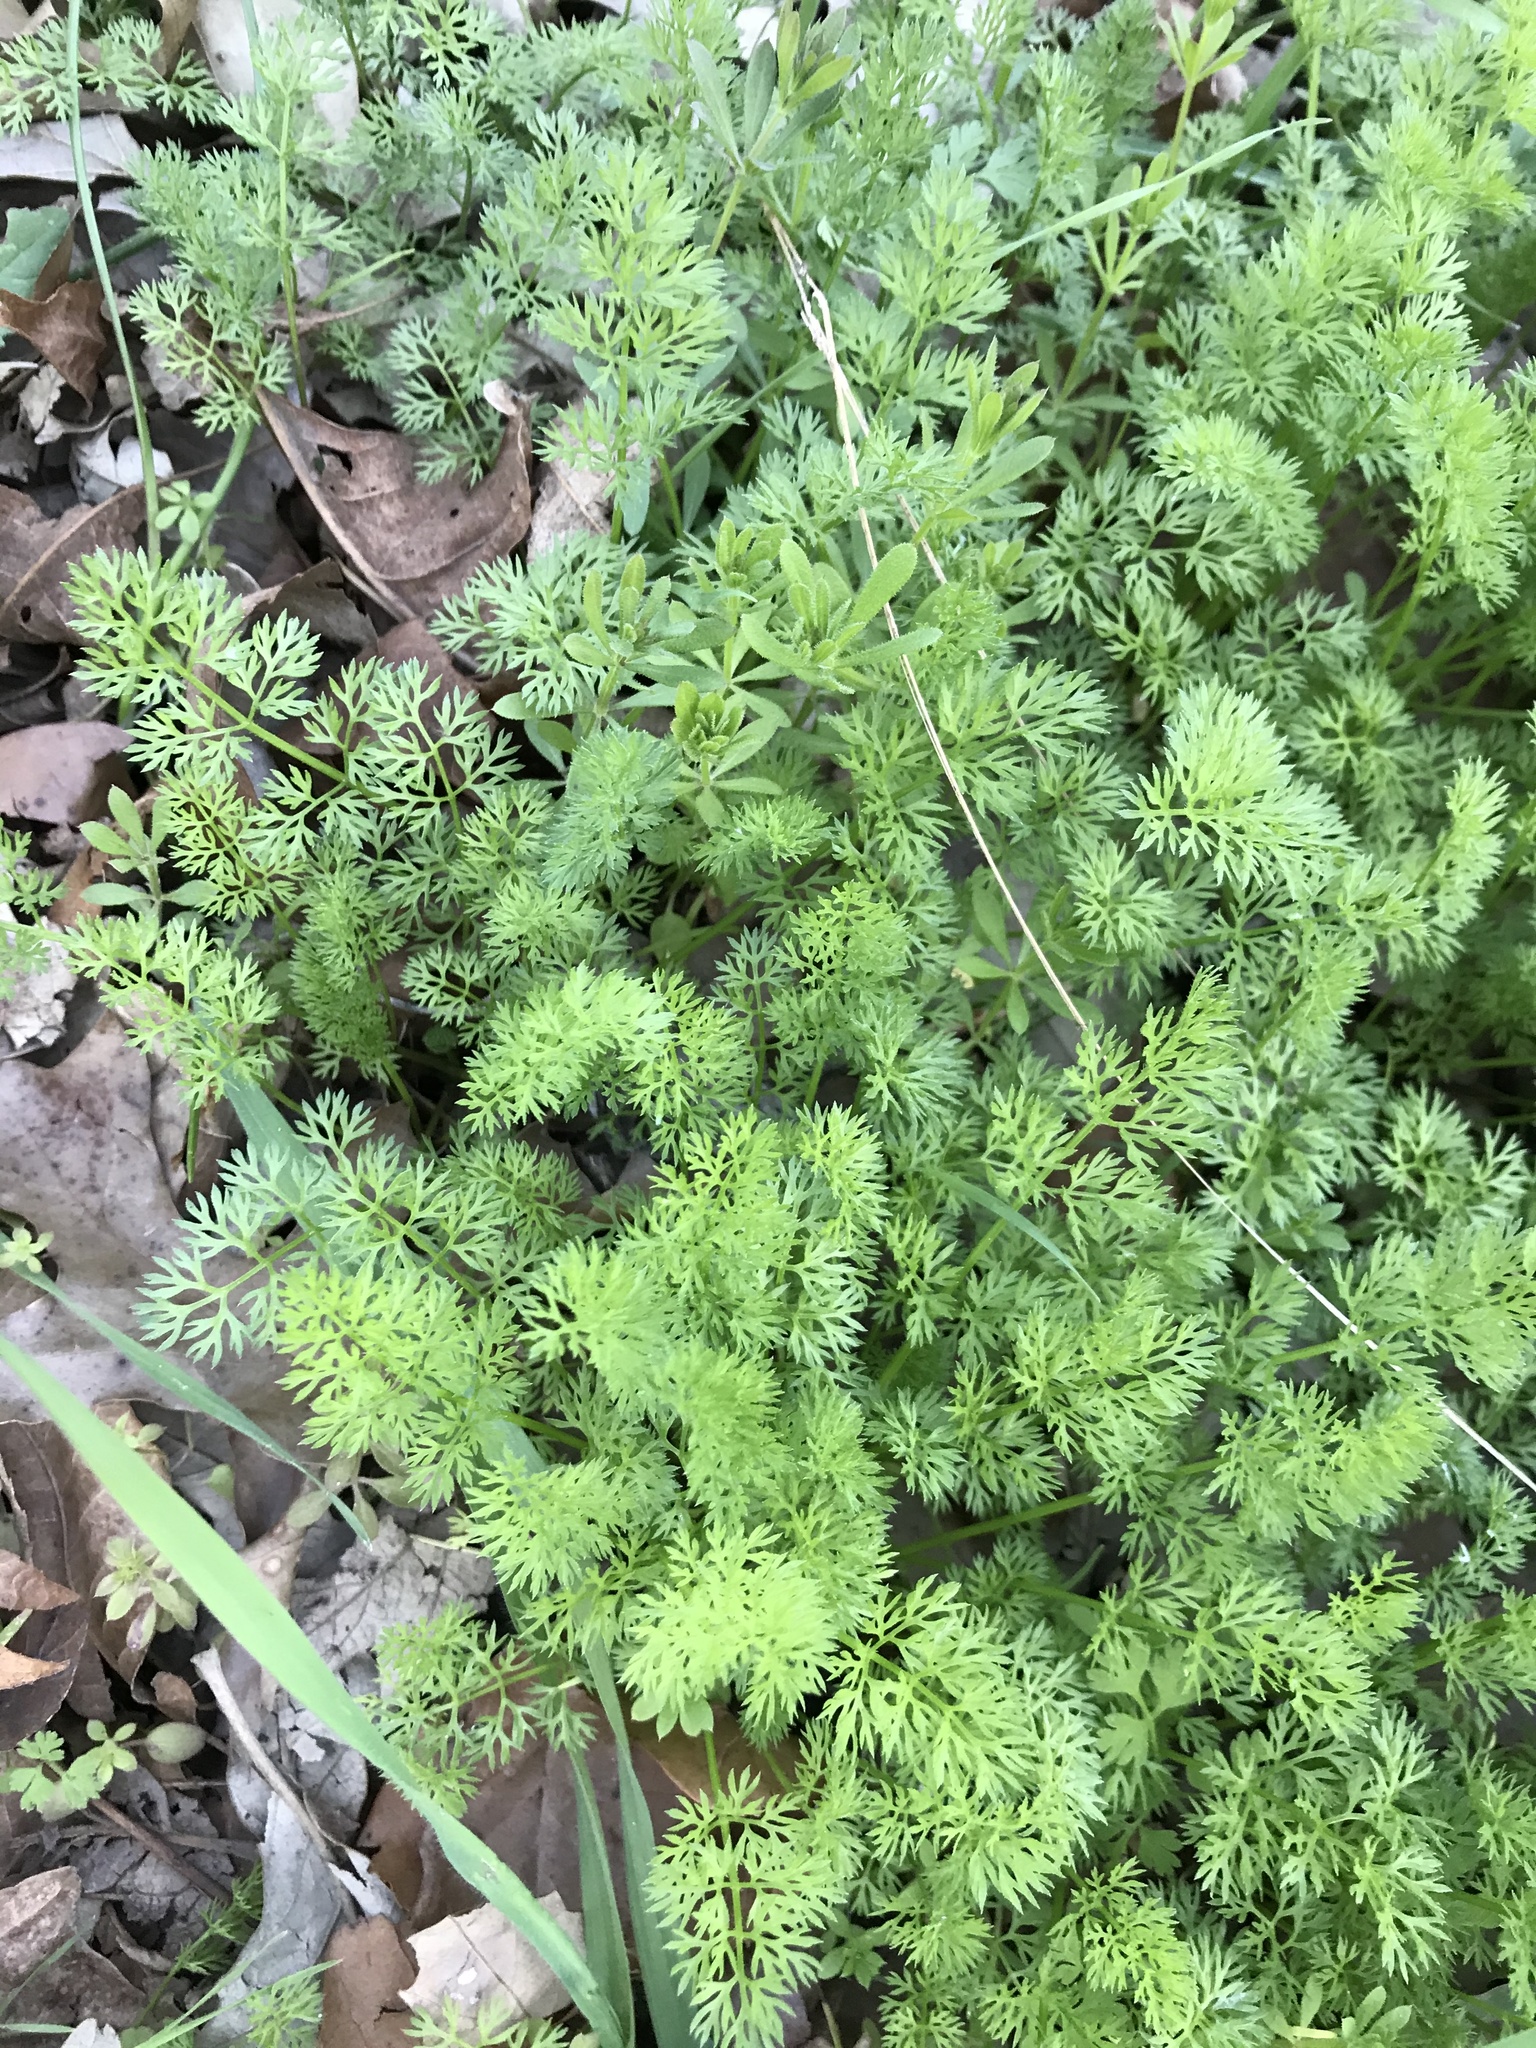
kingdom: Plantae
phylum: Tracheophyta
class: Magnoliopsida
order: Apiales
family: Apiaceae
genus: Scandix
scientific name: Scandix pecten-veneris
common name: Shepherd's-needle
